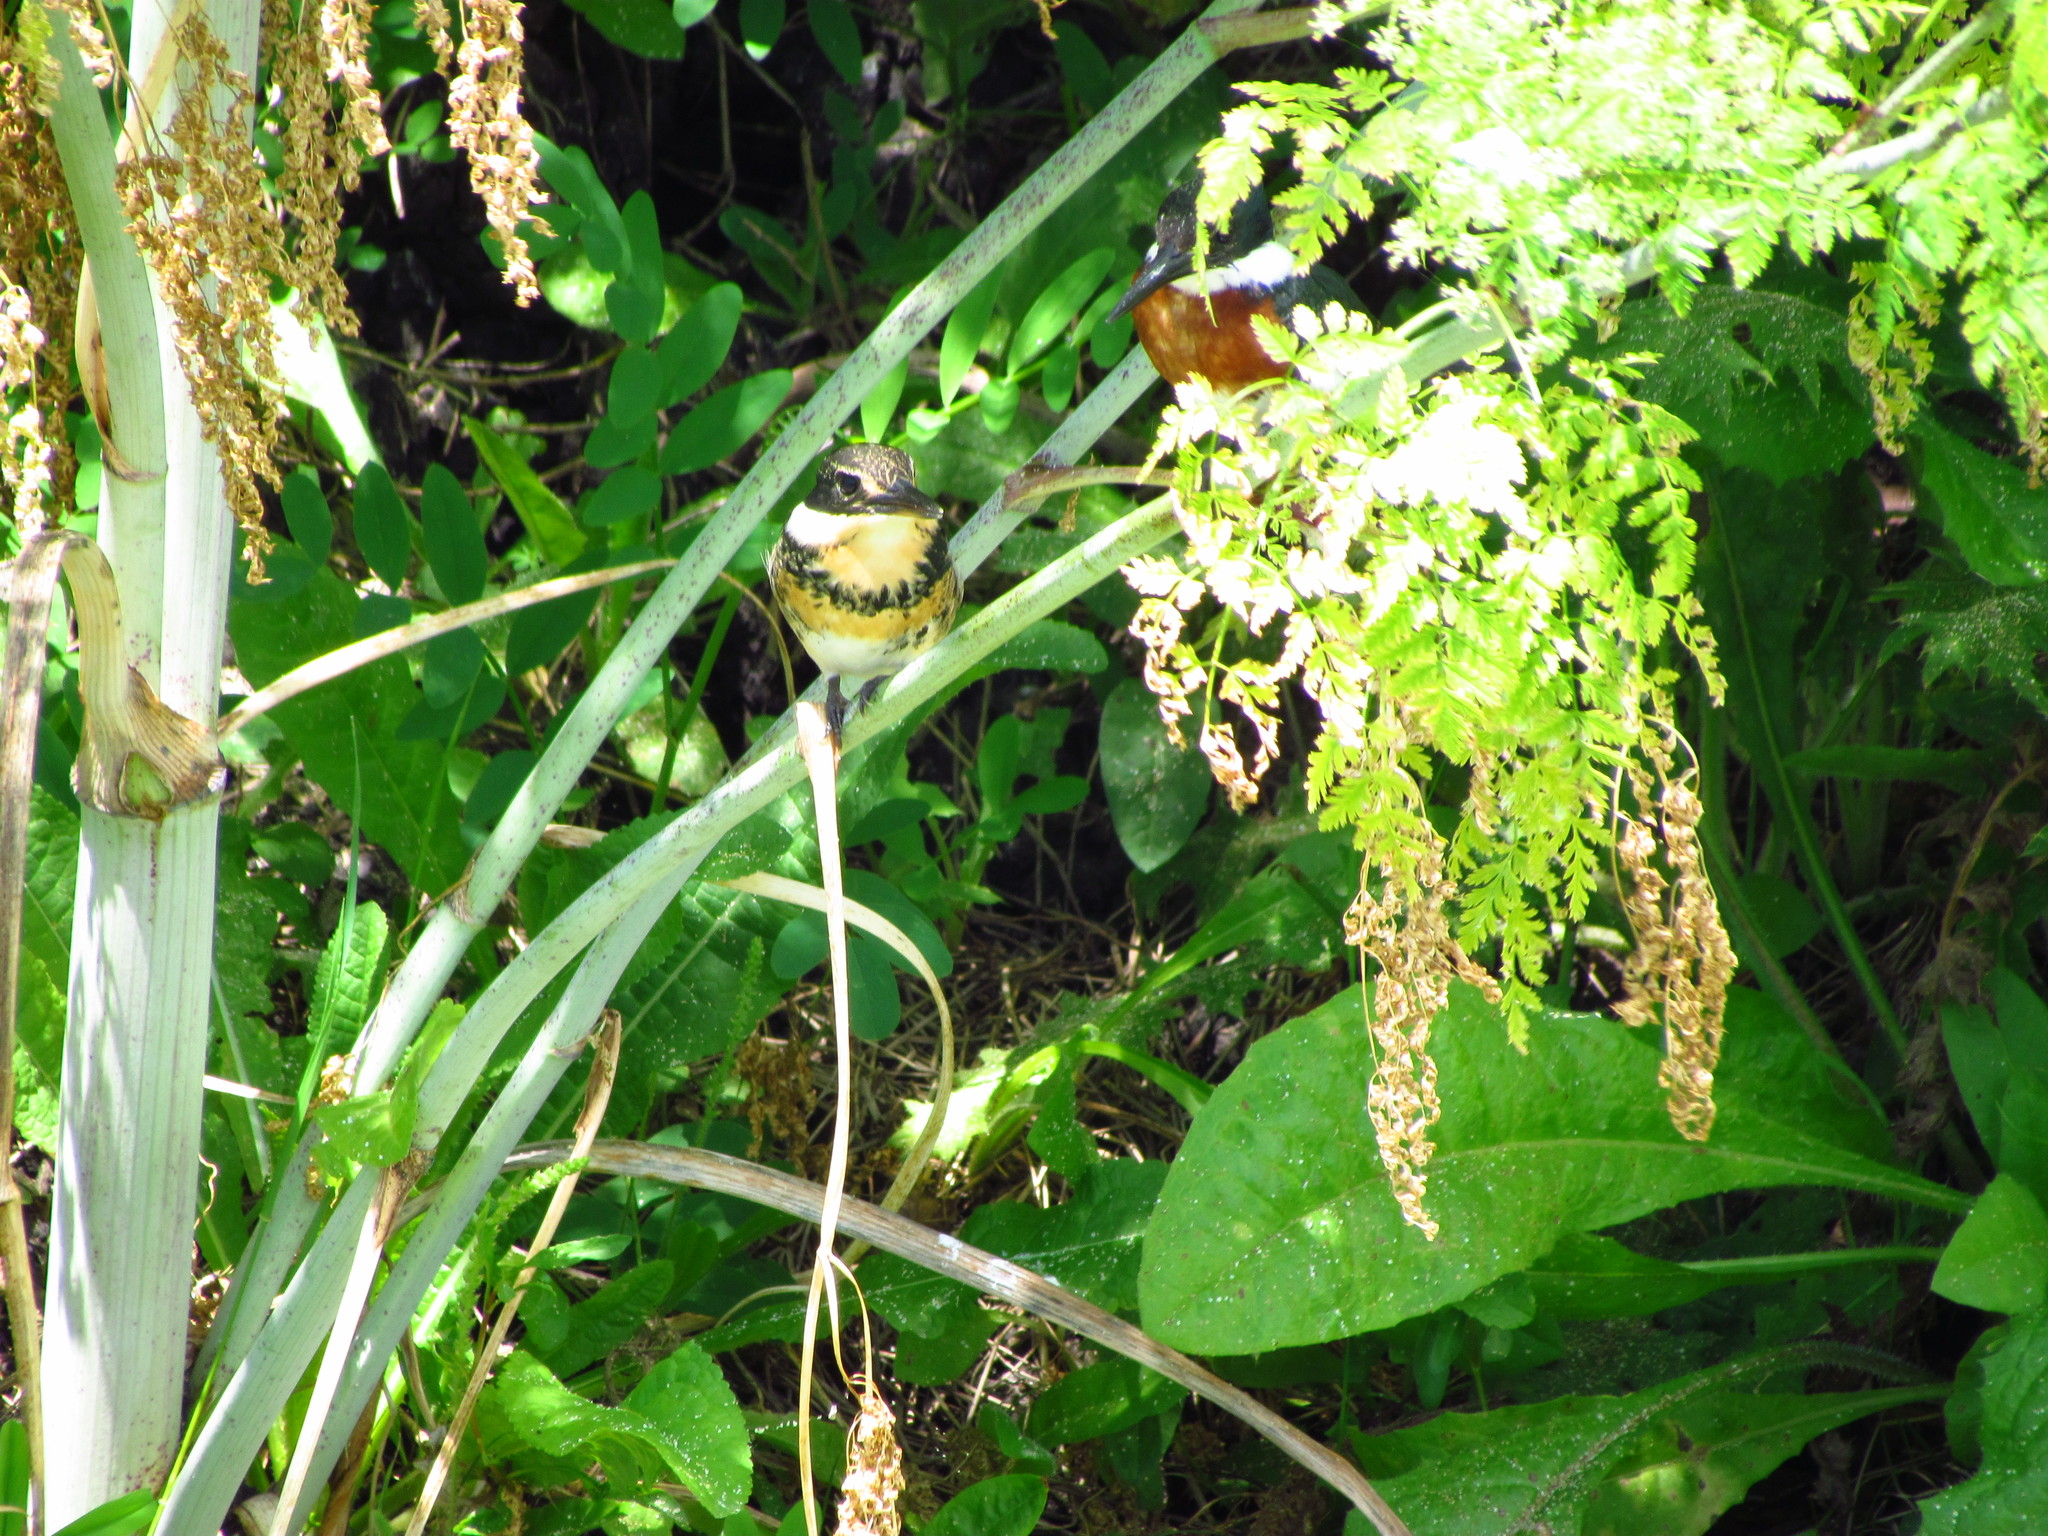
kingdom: Animalia
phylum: Chordata
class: Aves
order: Coraciiformes
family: Alcedinidae
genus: Chloroceryle
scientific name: Chloroceryle americana
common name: Green kingfisher
